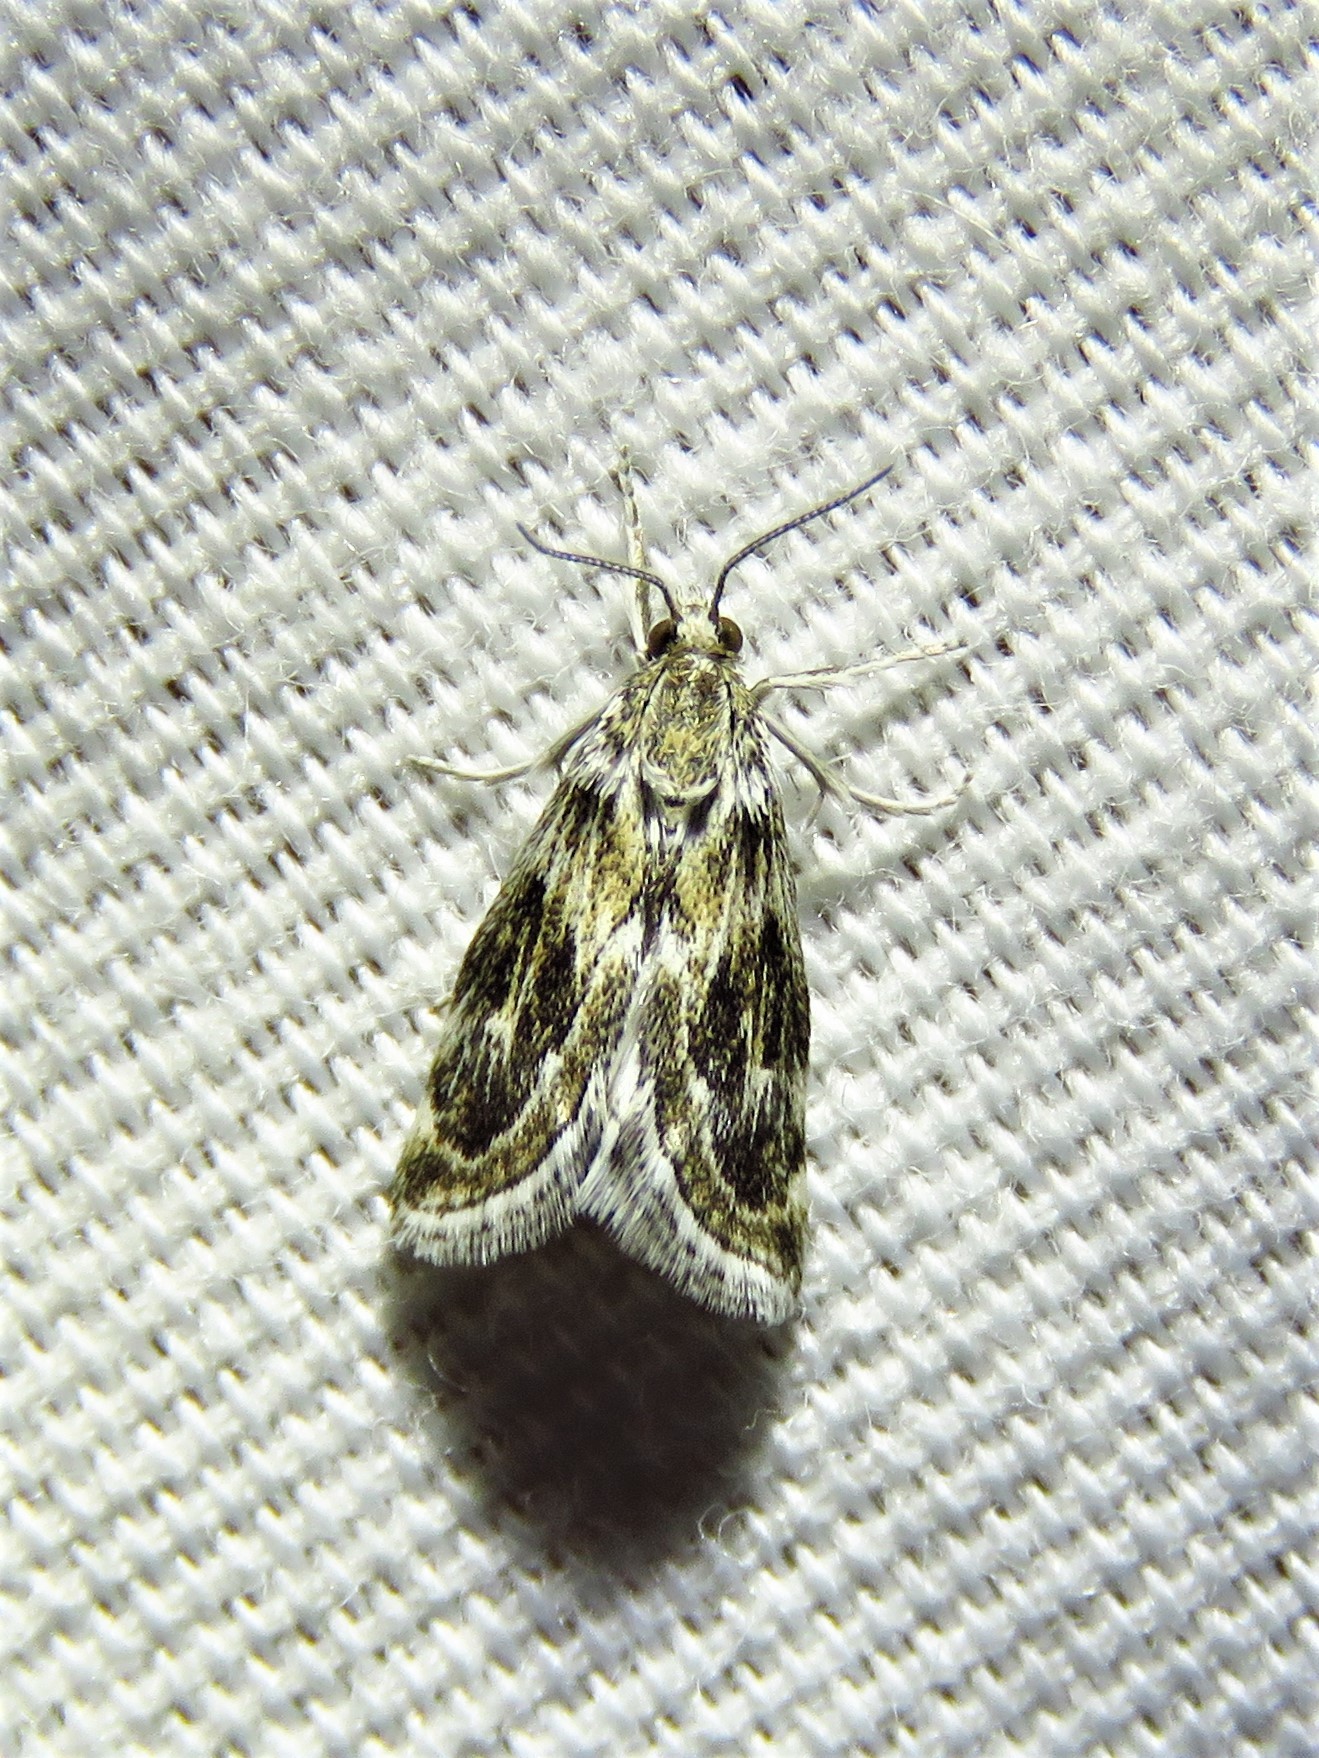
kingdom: Animalia
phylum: Arthropoda
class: Insecta
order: Lepidoptera
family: Crambidae
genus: Frechinia
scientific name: Frechinia laetalis
